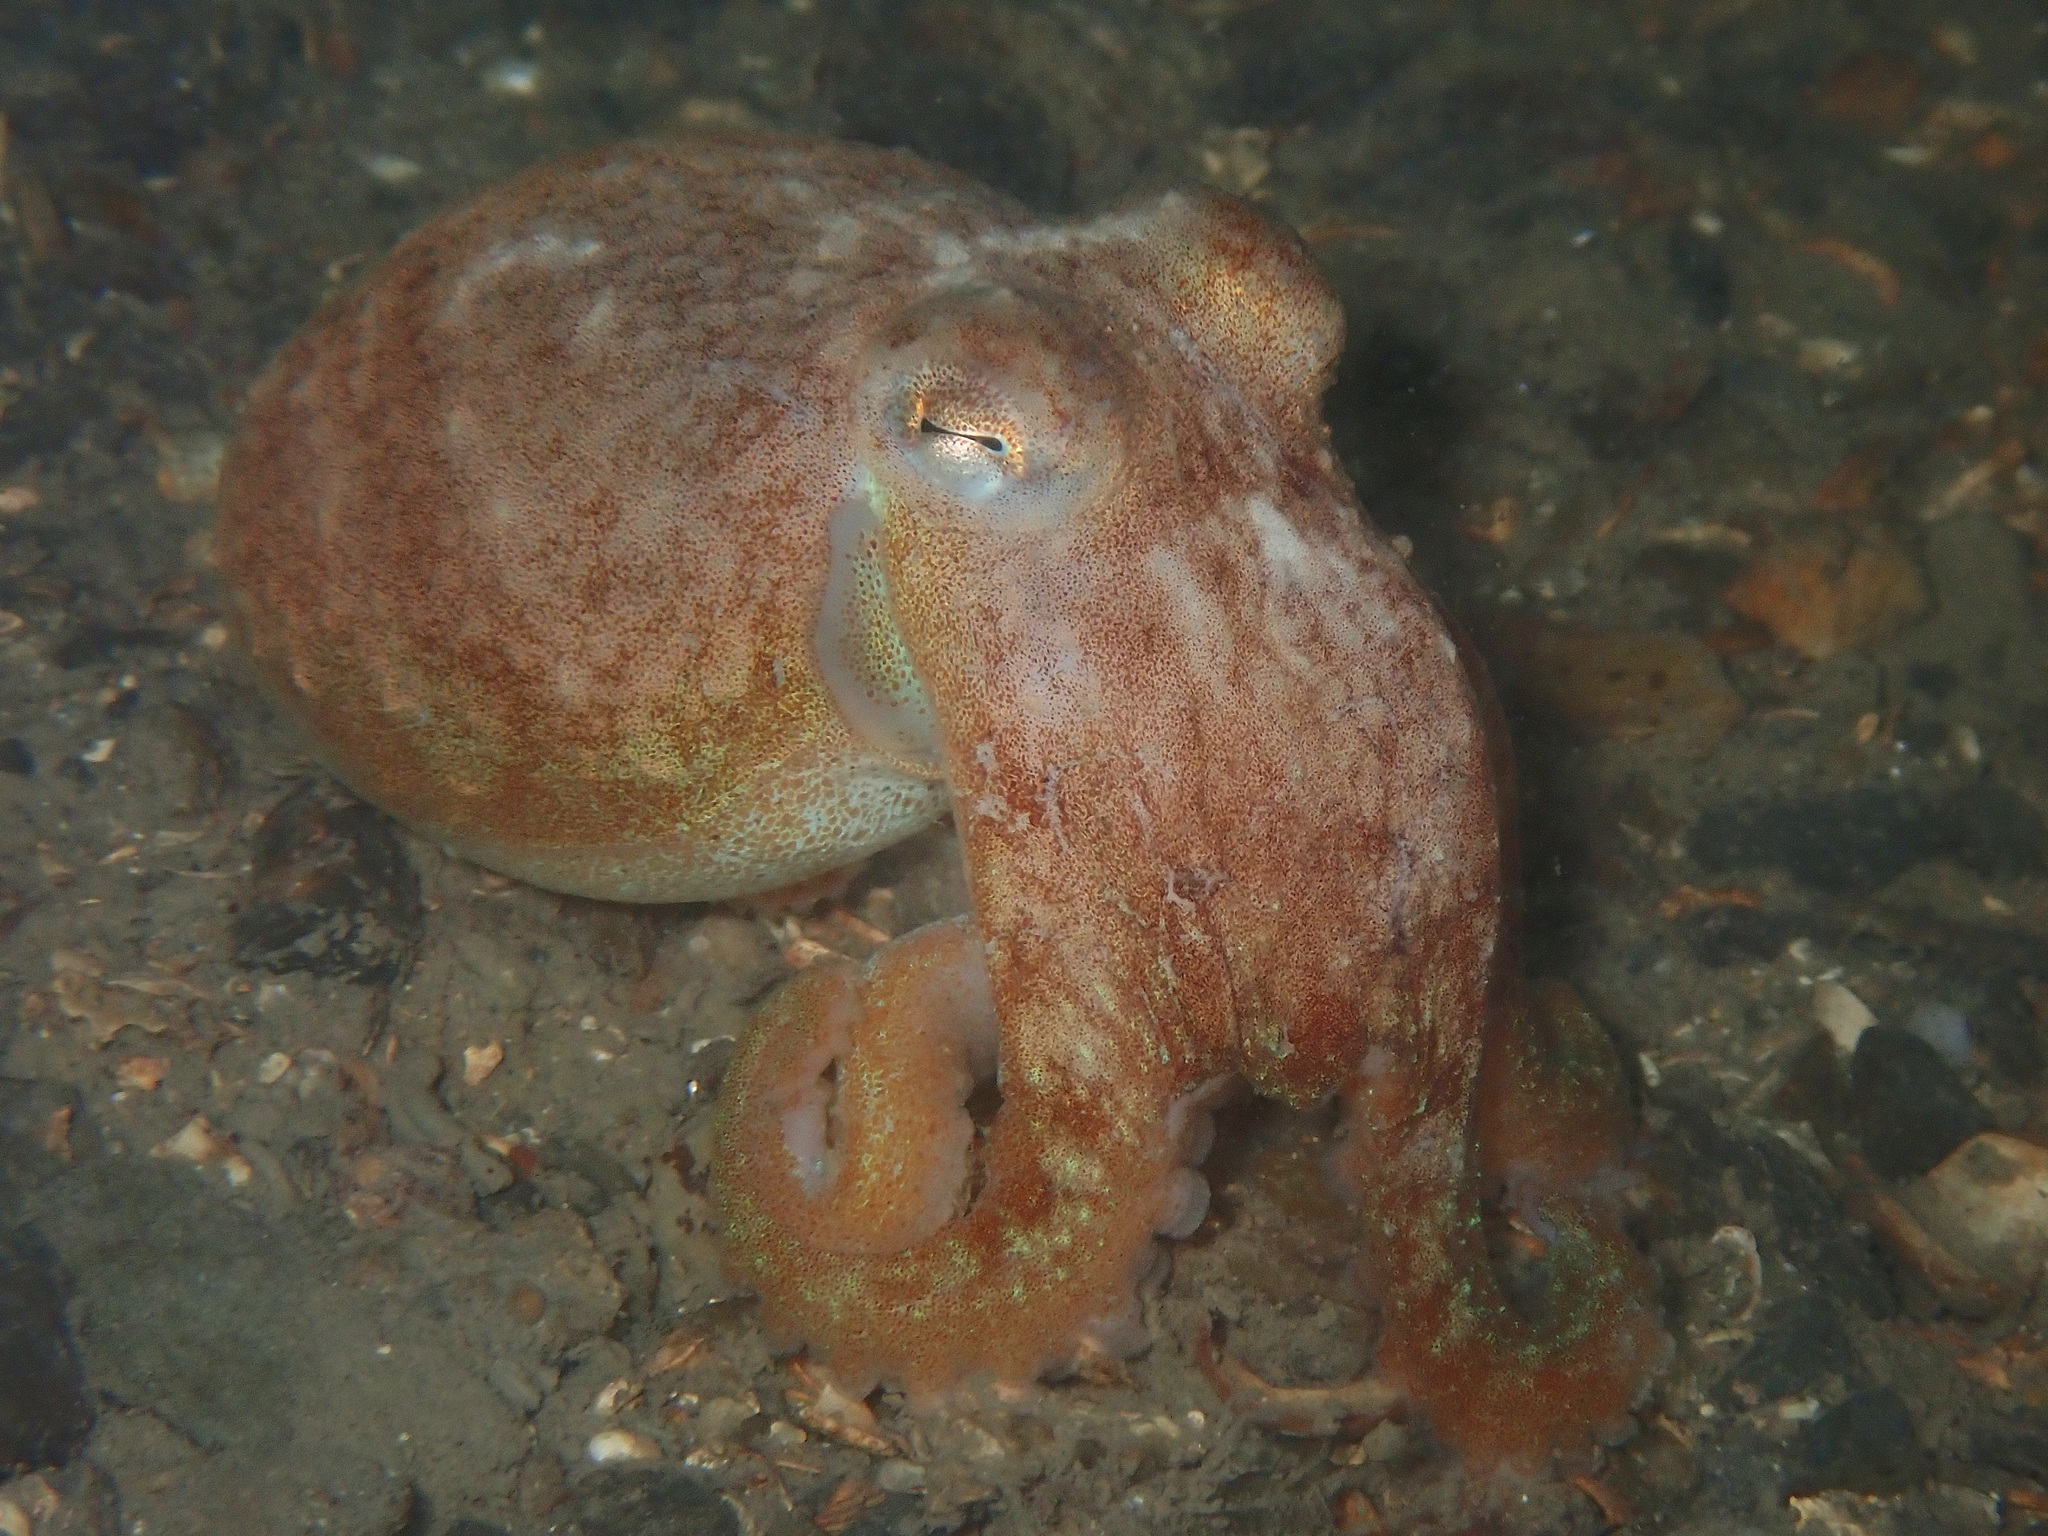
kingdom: Animalia
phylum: Mollusca
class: Cephalopoda
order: Octopoda
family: Eledonidae
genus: Eledone
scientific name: Eledone cirrhosa
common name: Curled octopus
